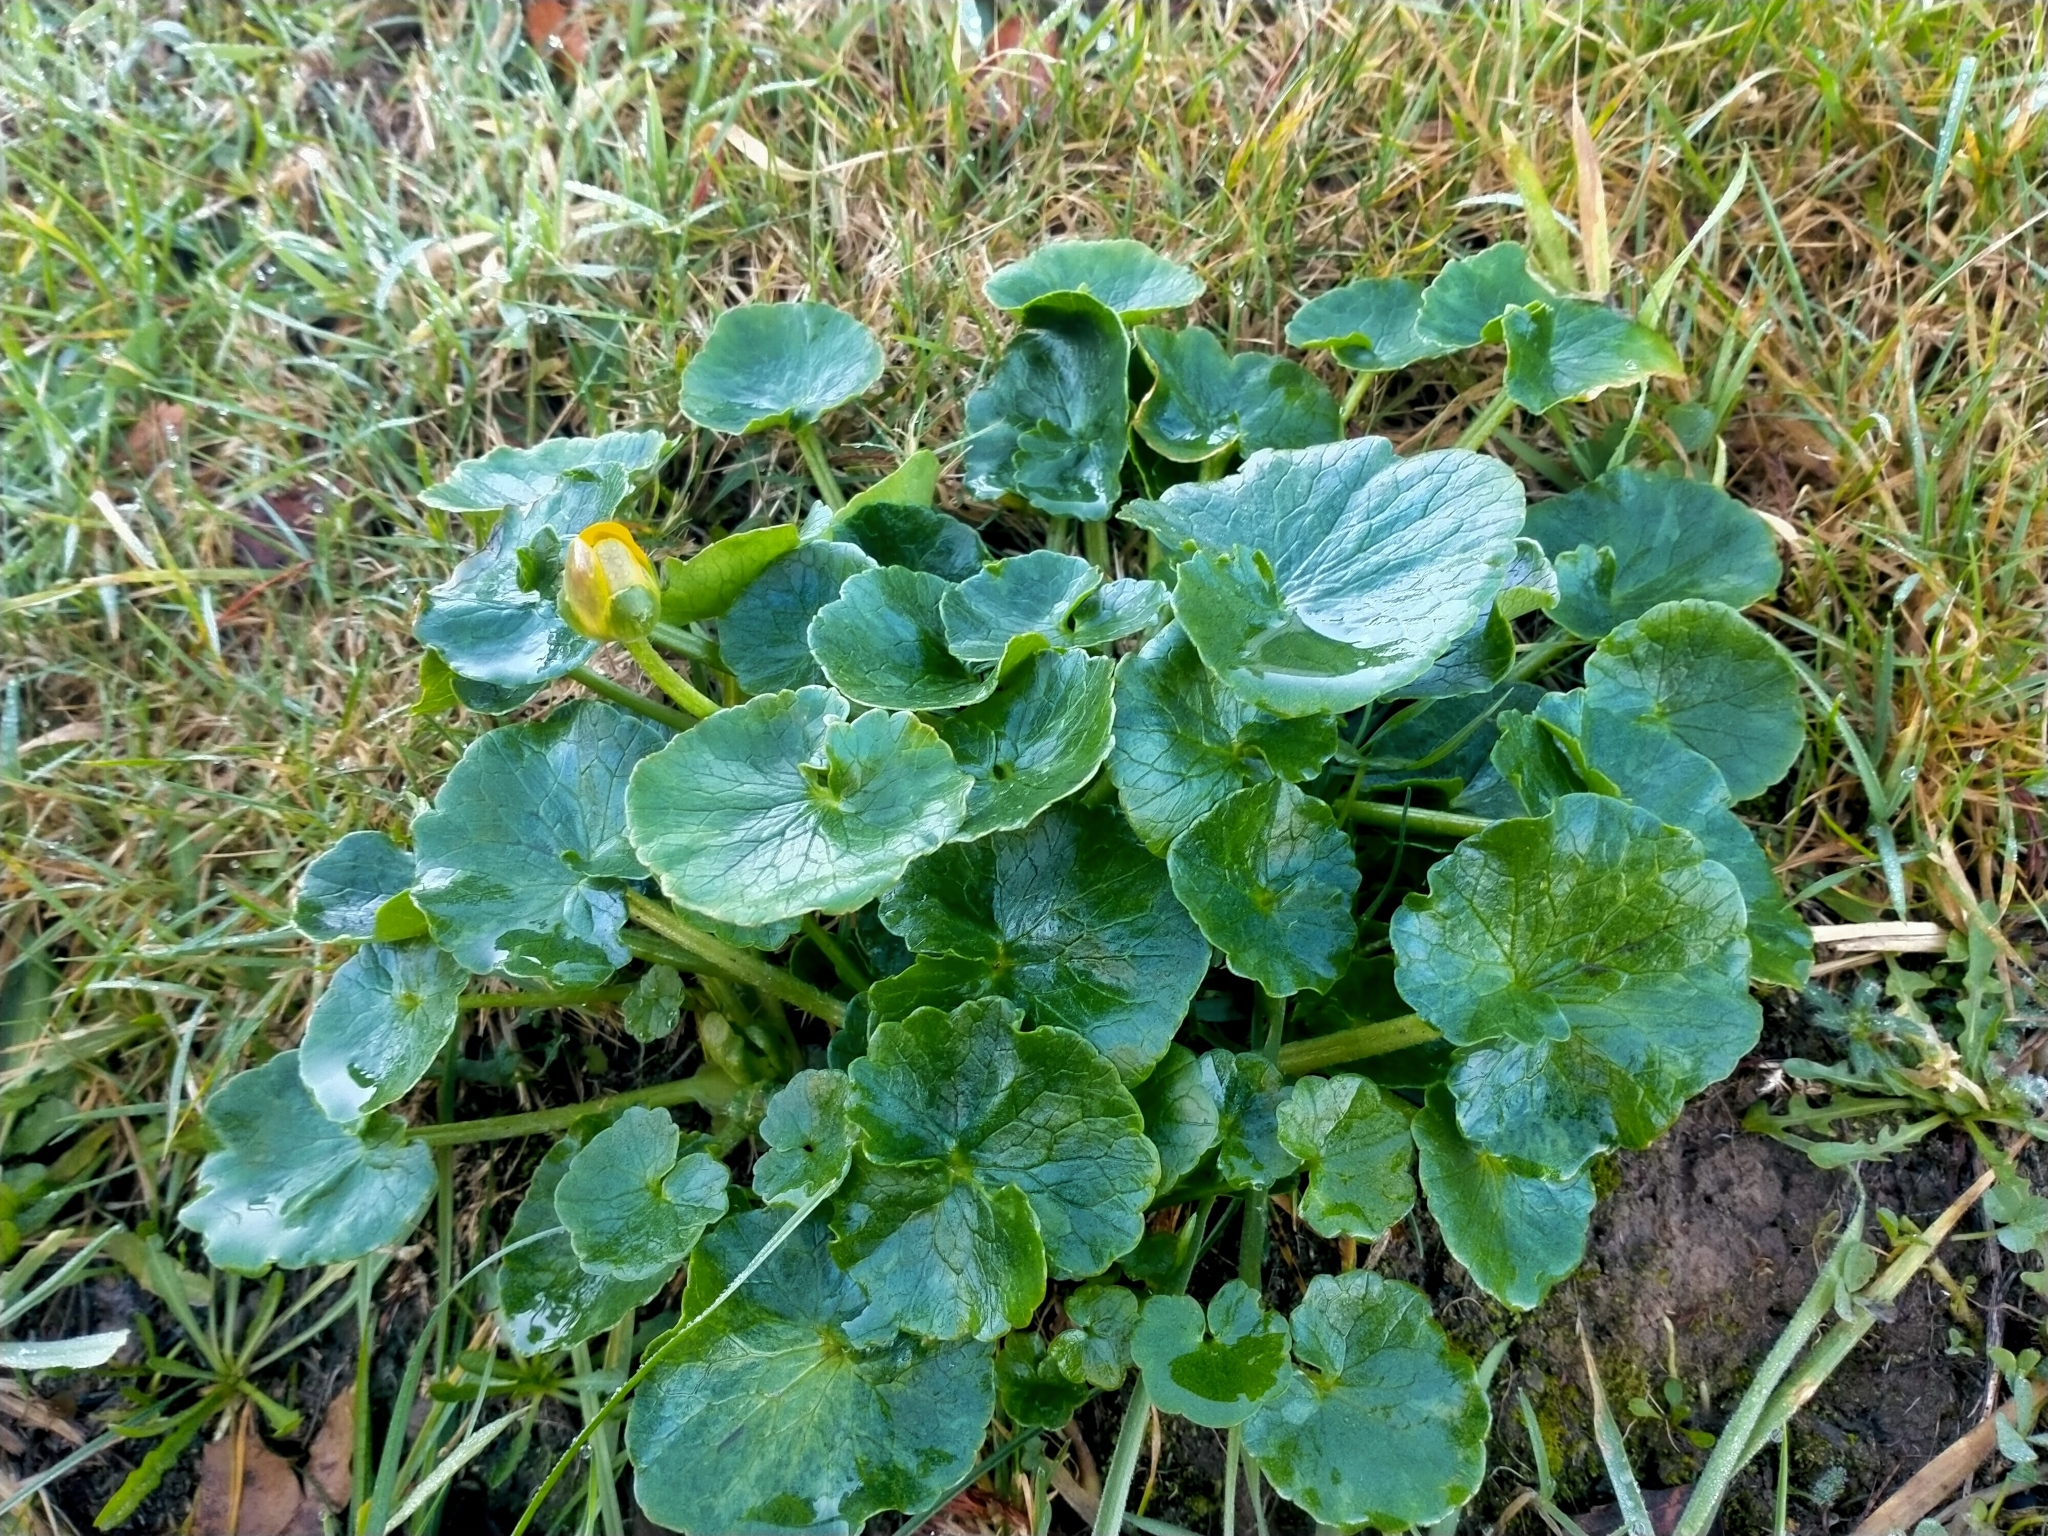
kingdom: Plantae
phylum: Tracheophyta
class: Magnoliopsida
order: Ranunculales
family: Ranunculaceae
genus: Ficaria
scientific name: Ficaria verna
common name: Lesser celandine
